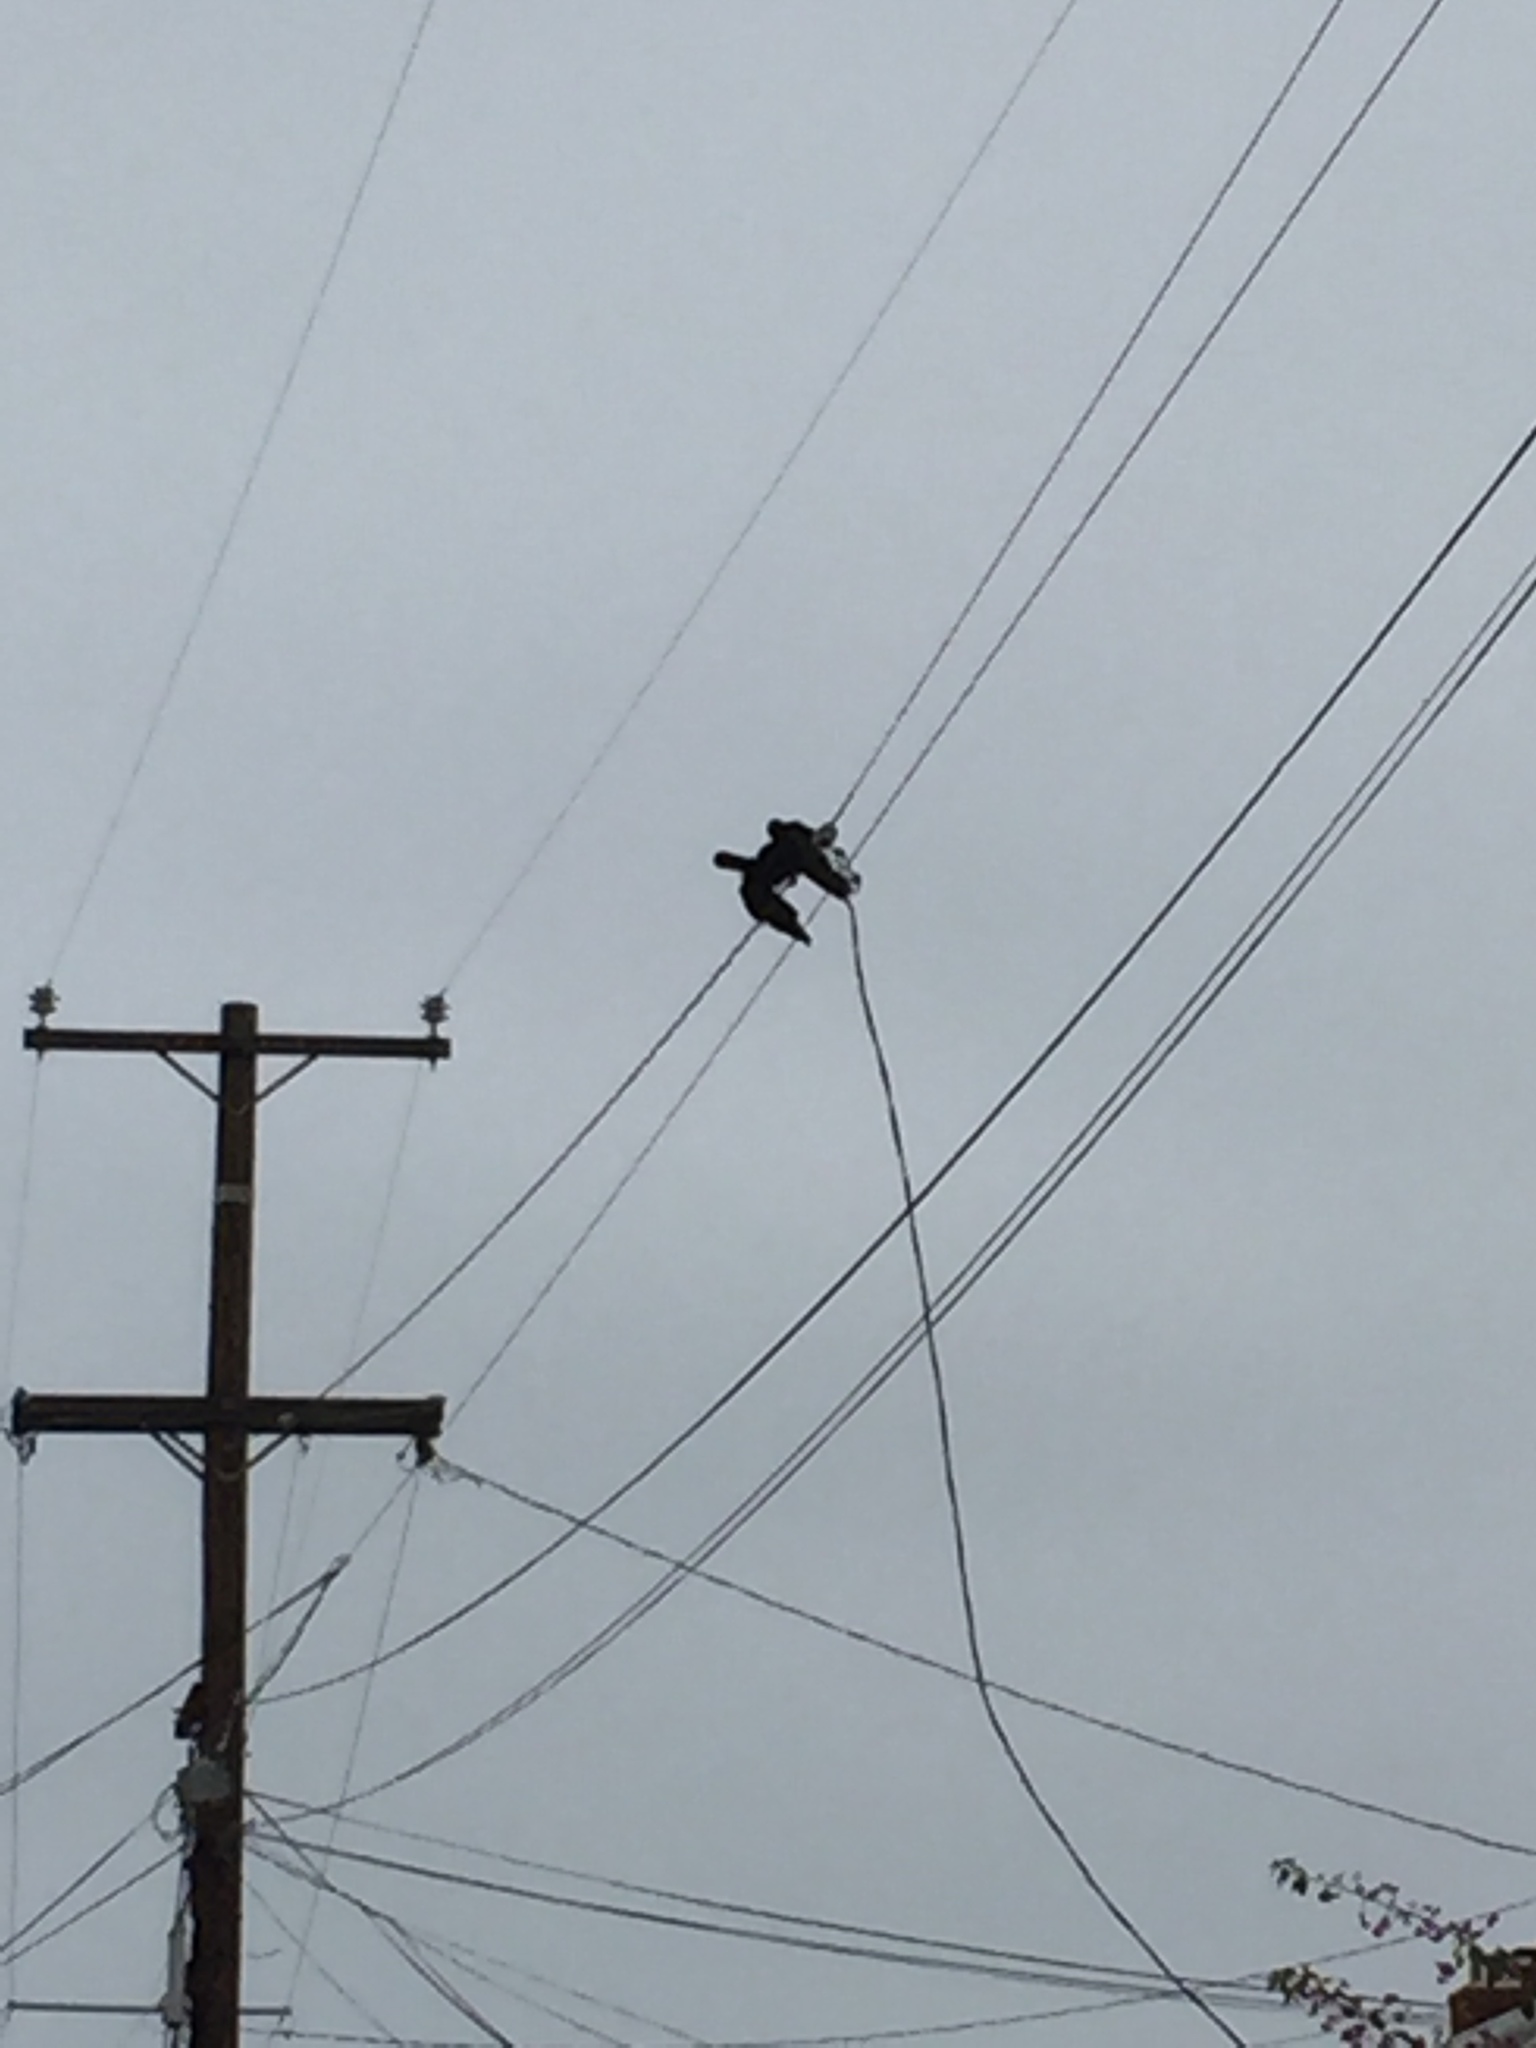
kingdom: Animalia
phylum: Chordata
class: Aves
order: Passeriformes
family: Corvidae
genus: Corvus
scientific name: Corvus brachyrhynchos
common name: American crow
